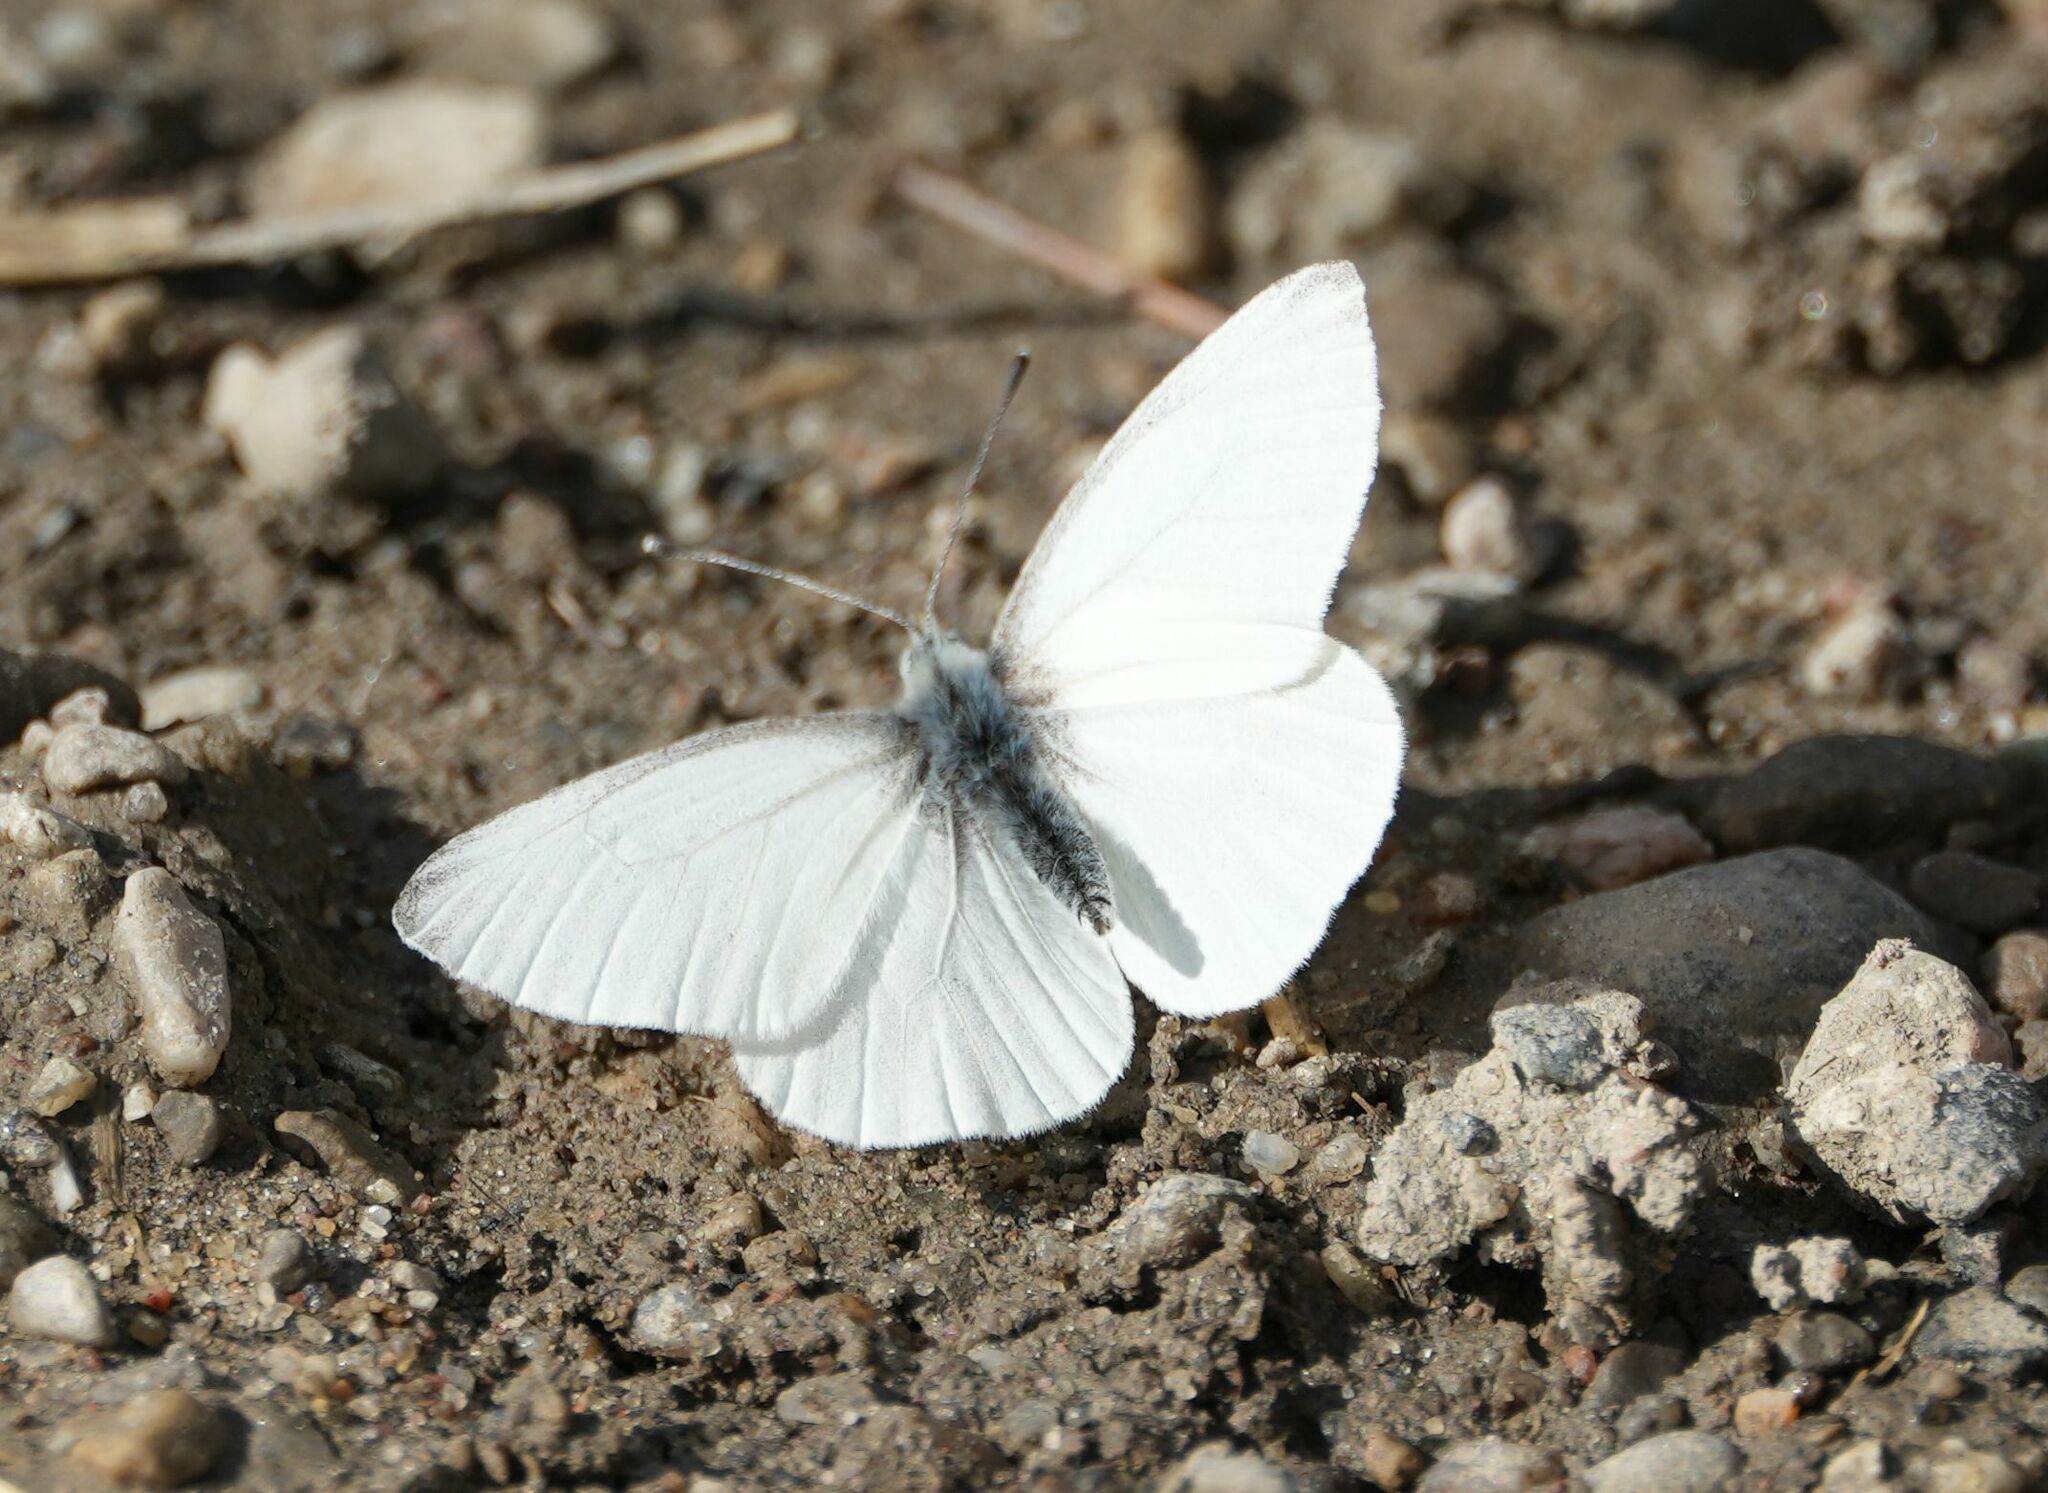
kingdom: Animalia
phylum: Arthropoda
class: Insecta
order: Lepidoptera
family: Pieridae
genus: Pieris
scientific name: Pieris virginiensis
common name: West virginia white
